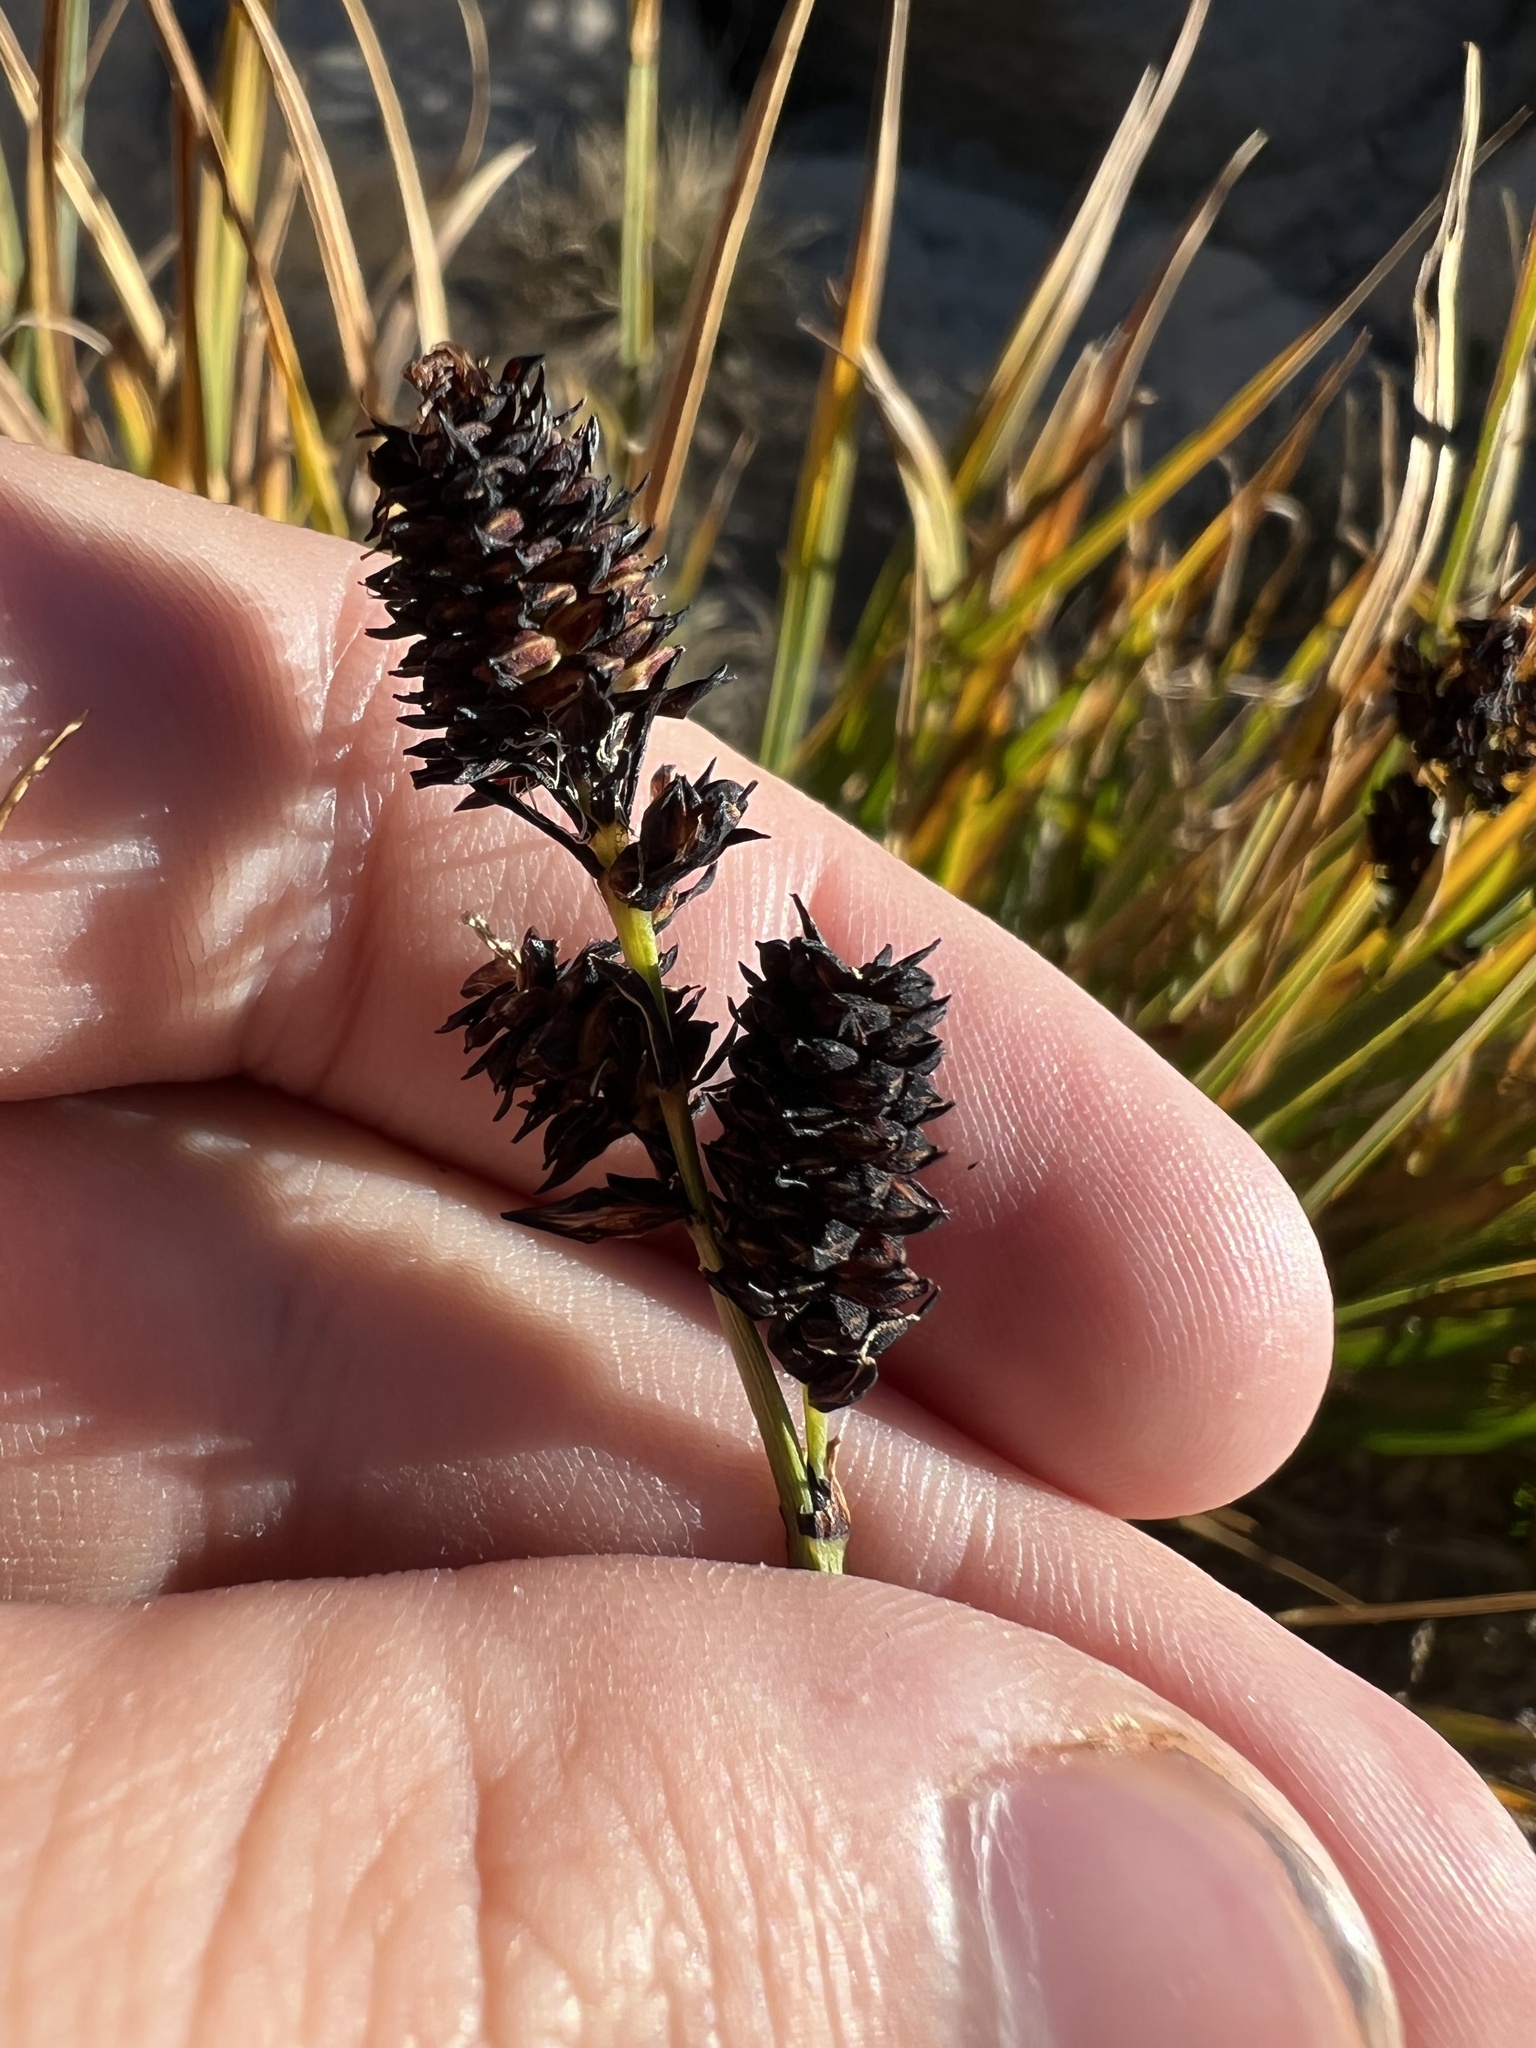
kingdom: Plantae
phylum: Tracheophyta
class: Liliopsida
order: Poales
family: Cyperaceae
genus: Carex
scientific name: Carex scopulorum
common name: Holm's rocky mountain sedge
